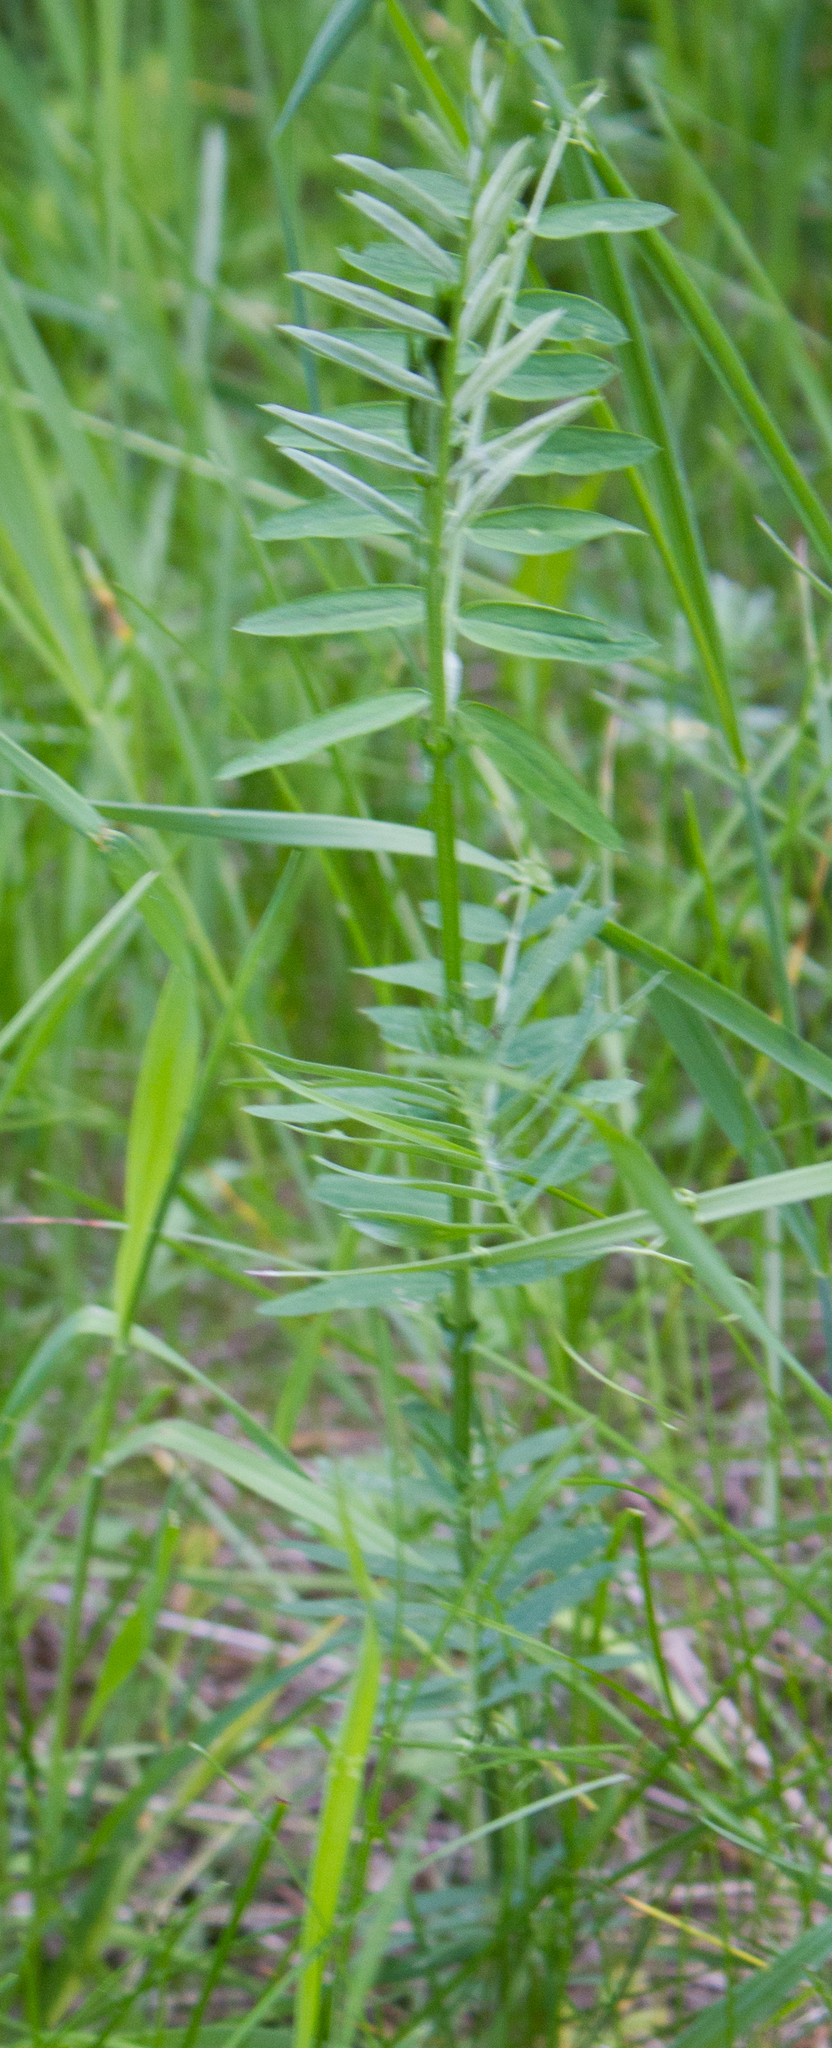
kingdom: Plantae
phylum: Tracheophyta
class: Magnoliopsida
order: Fabales
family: Fabaceae
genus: Vicia
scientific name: Vicia cracca
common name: Bird vetch
